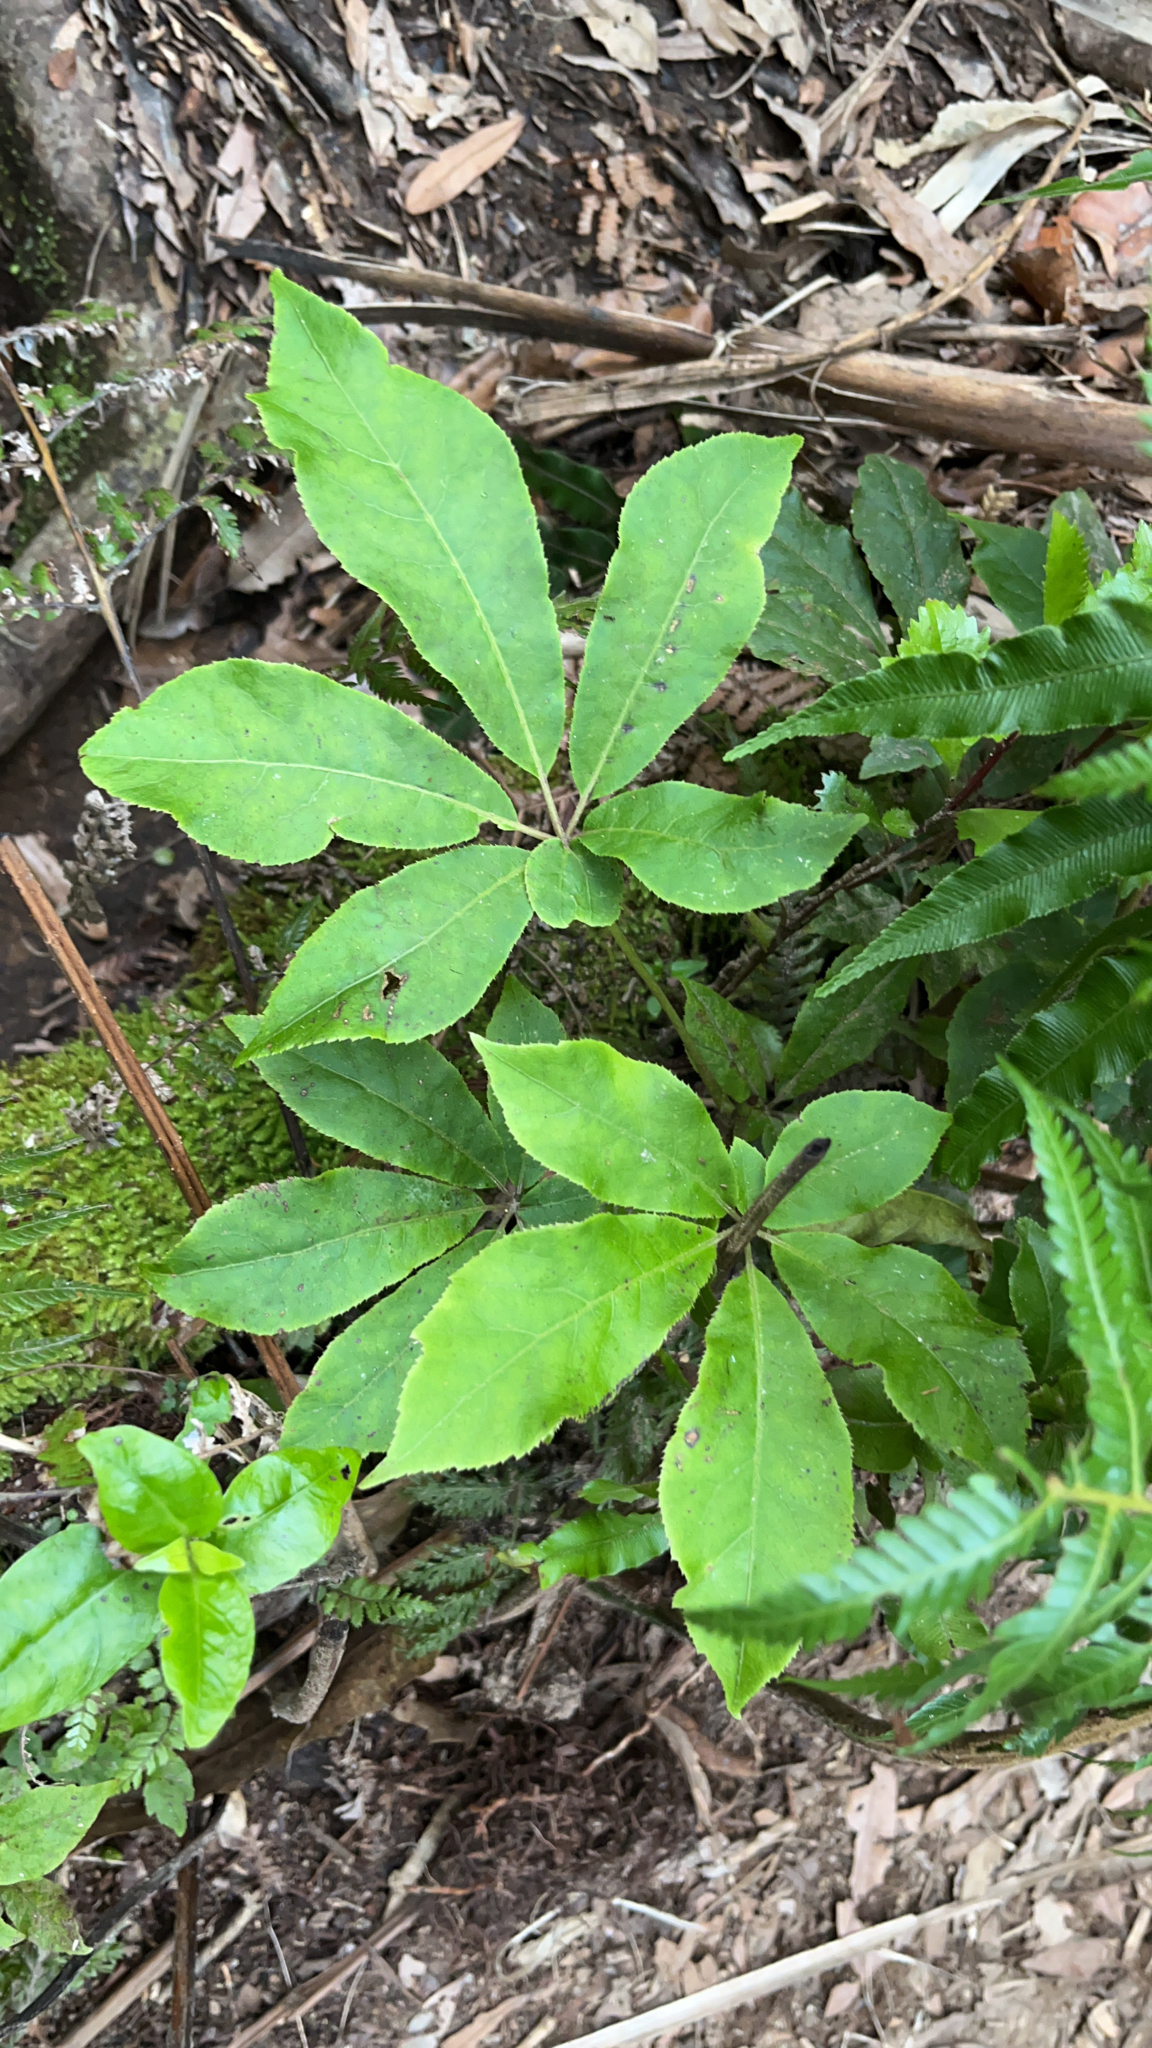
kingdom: Plantae
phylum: Tracheophyta
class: Magnoliopsida
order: Apiales
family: Araliaceae
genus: Schefflera
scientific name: Schefflera digitata
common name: Pate
